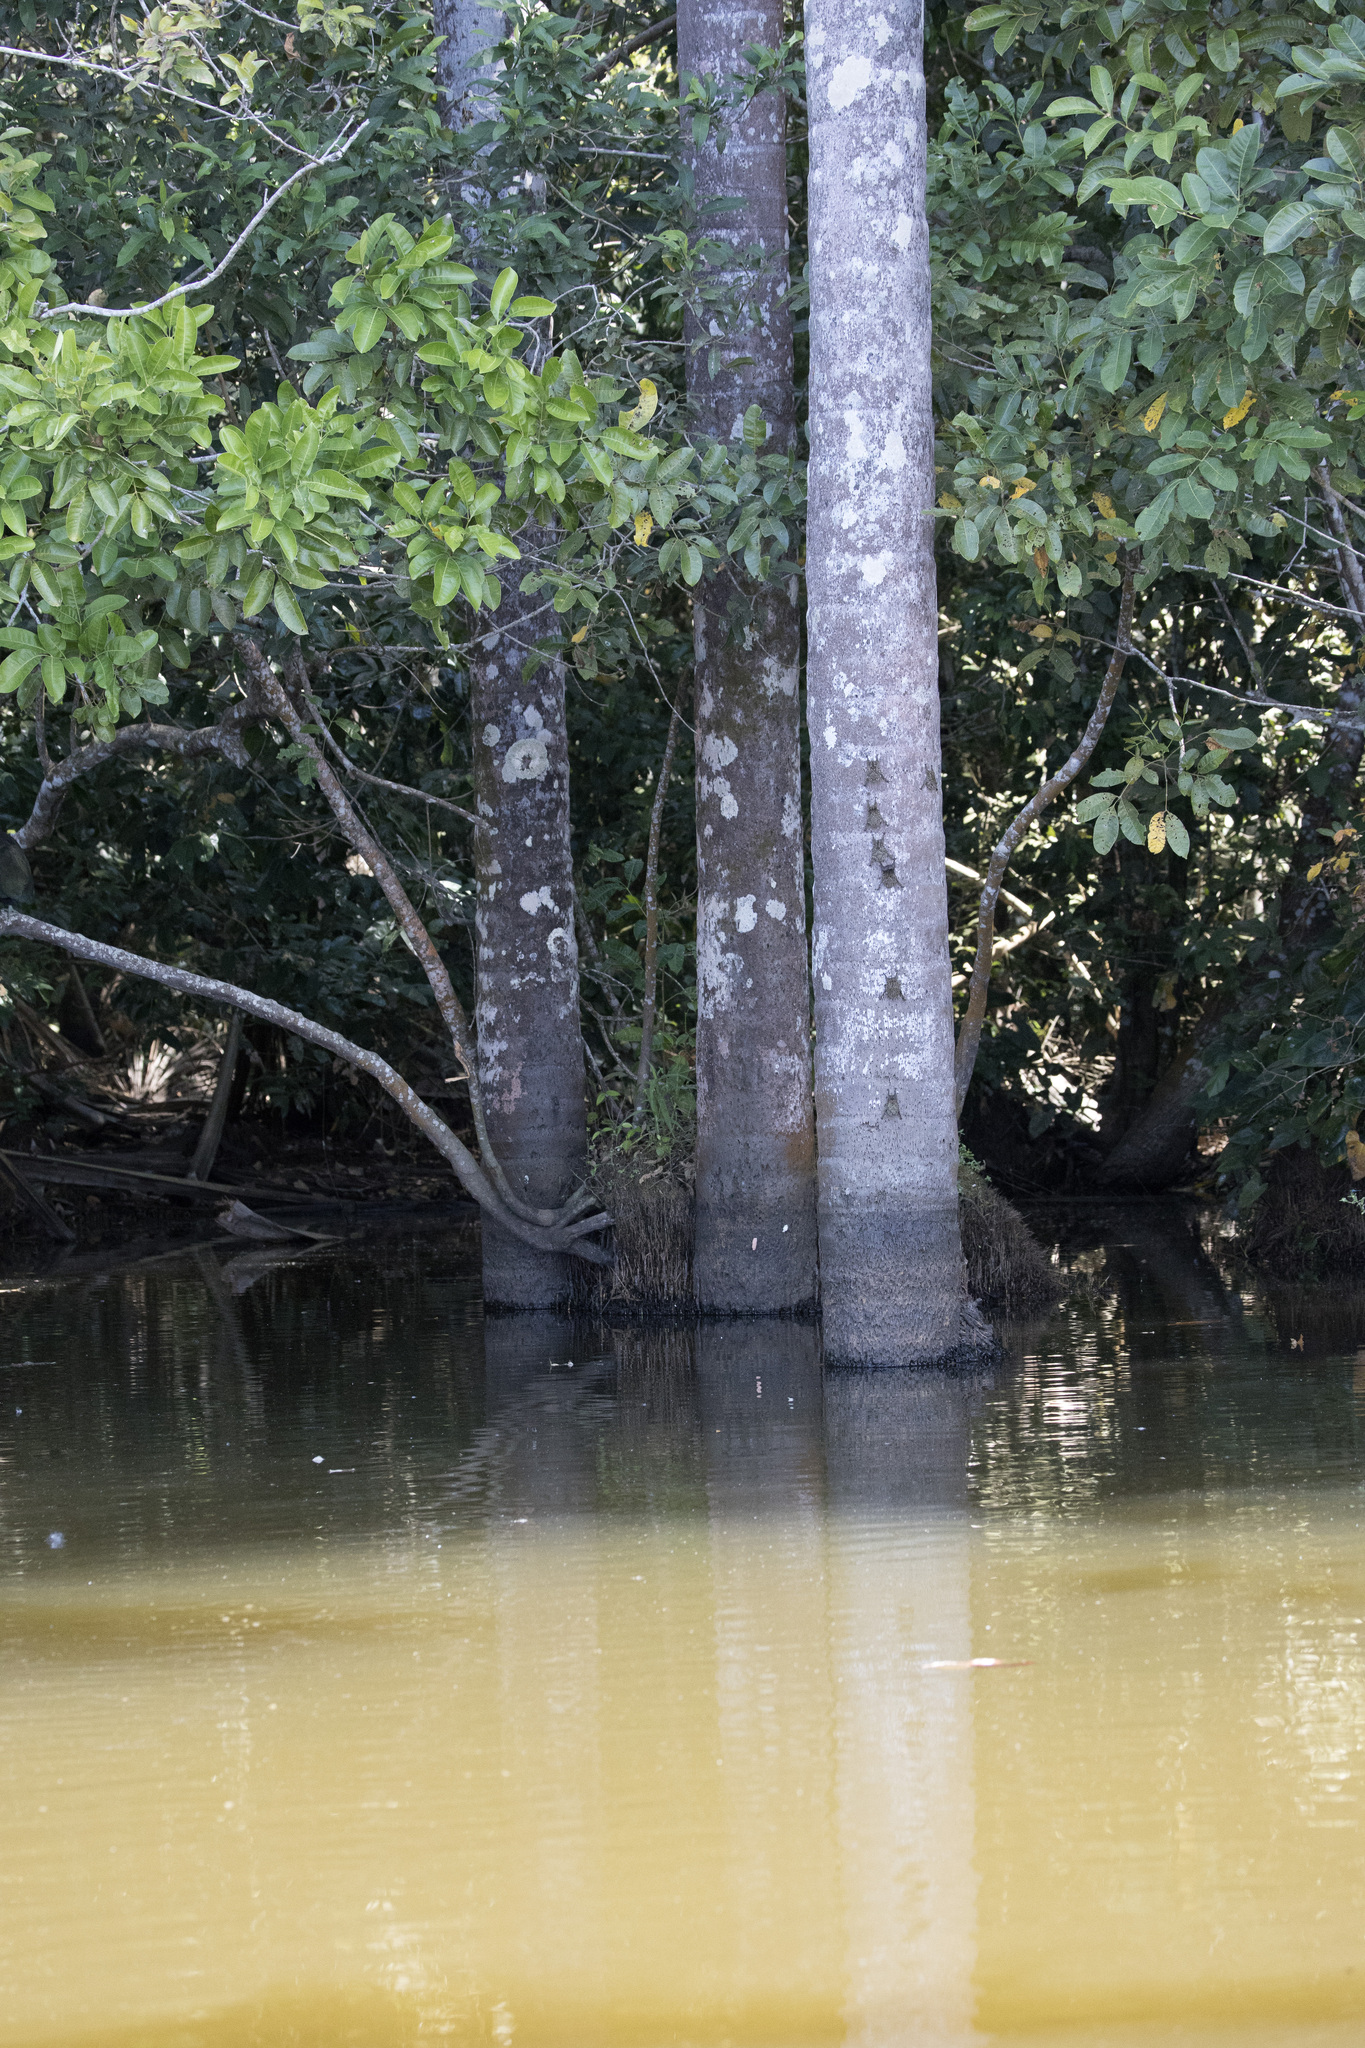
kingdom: Animalia
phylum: Chordata
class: Mammalia
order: Chiroptera
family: Emballonuridae
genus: Rhynchonycteris
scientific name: Rhynchonycteris naso
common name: Proboscis bat
